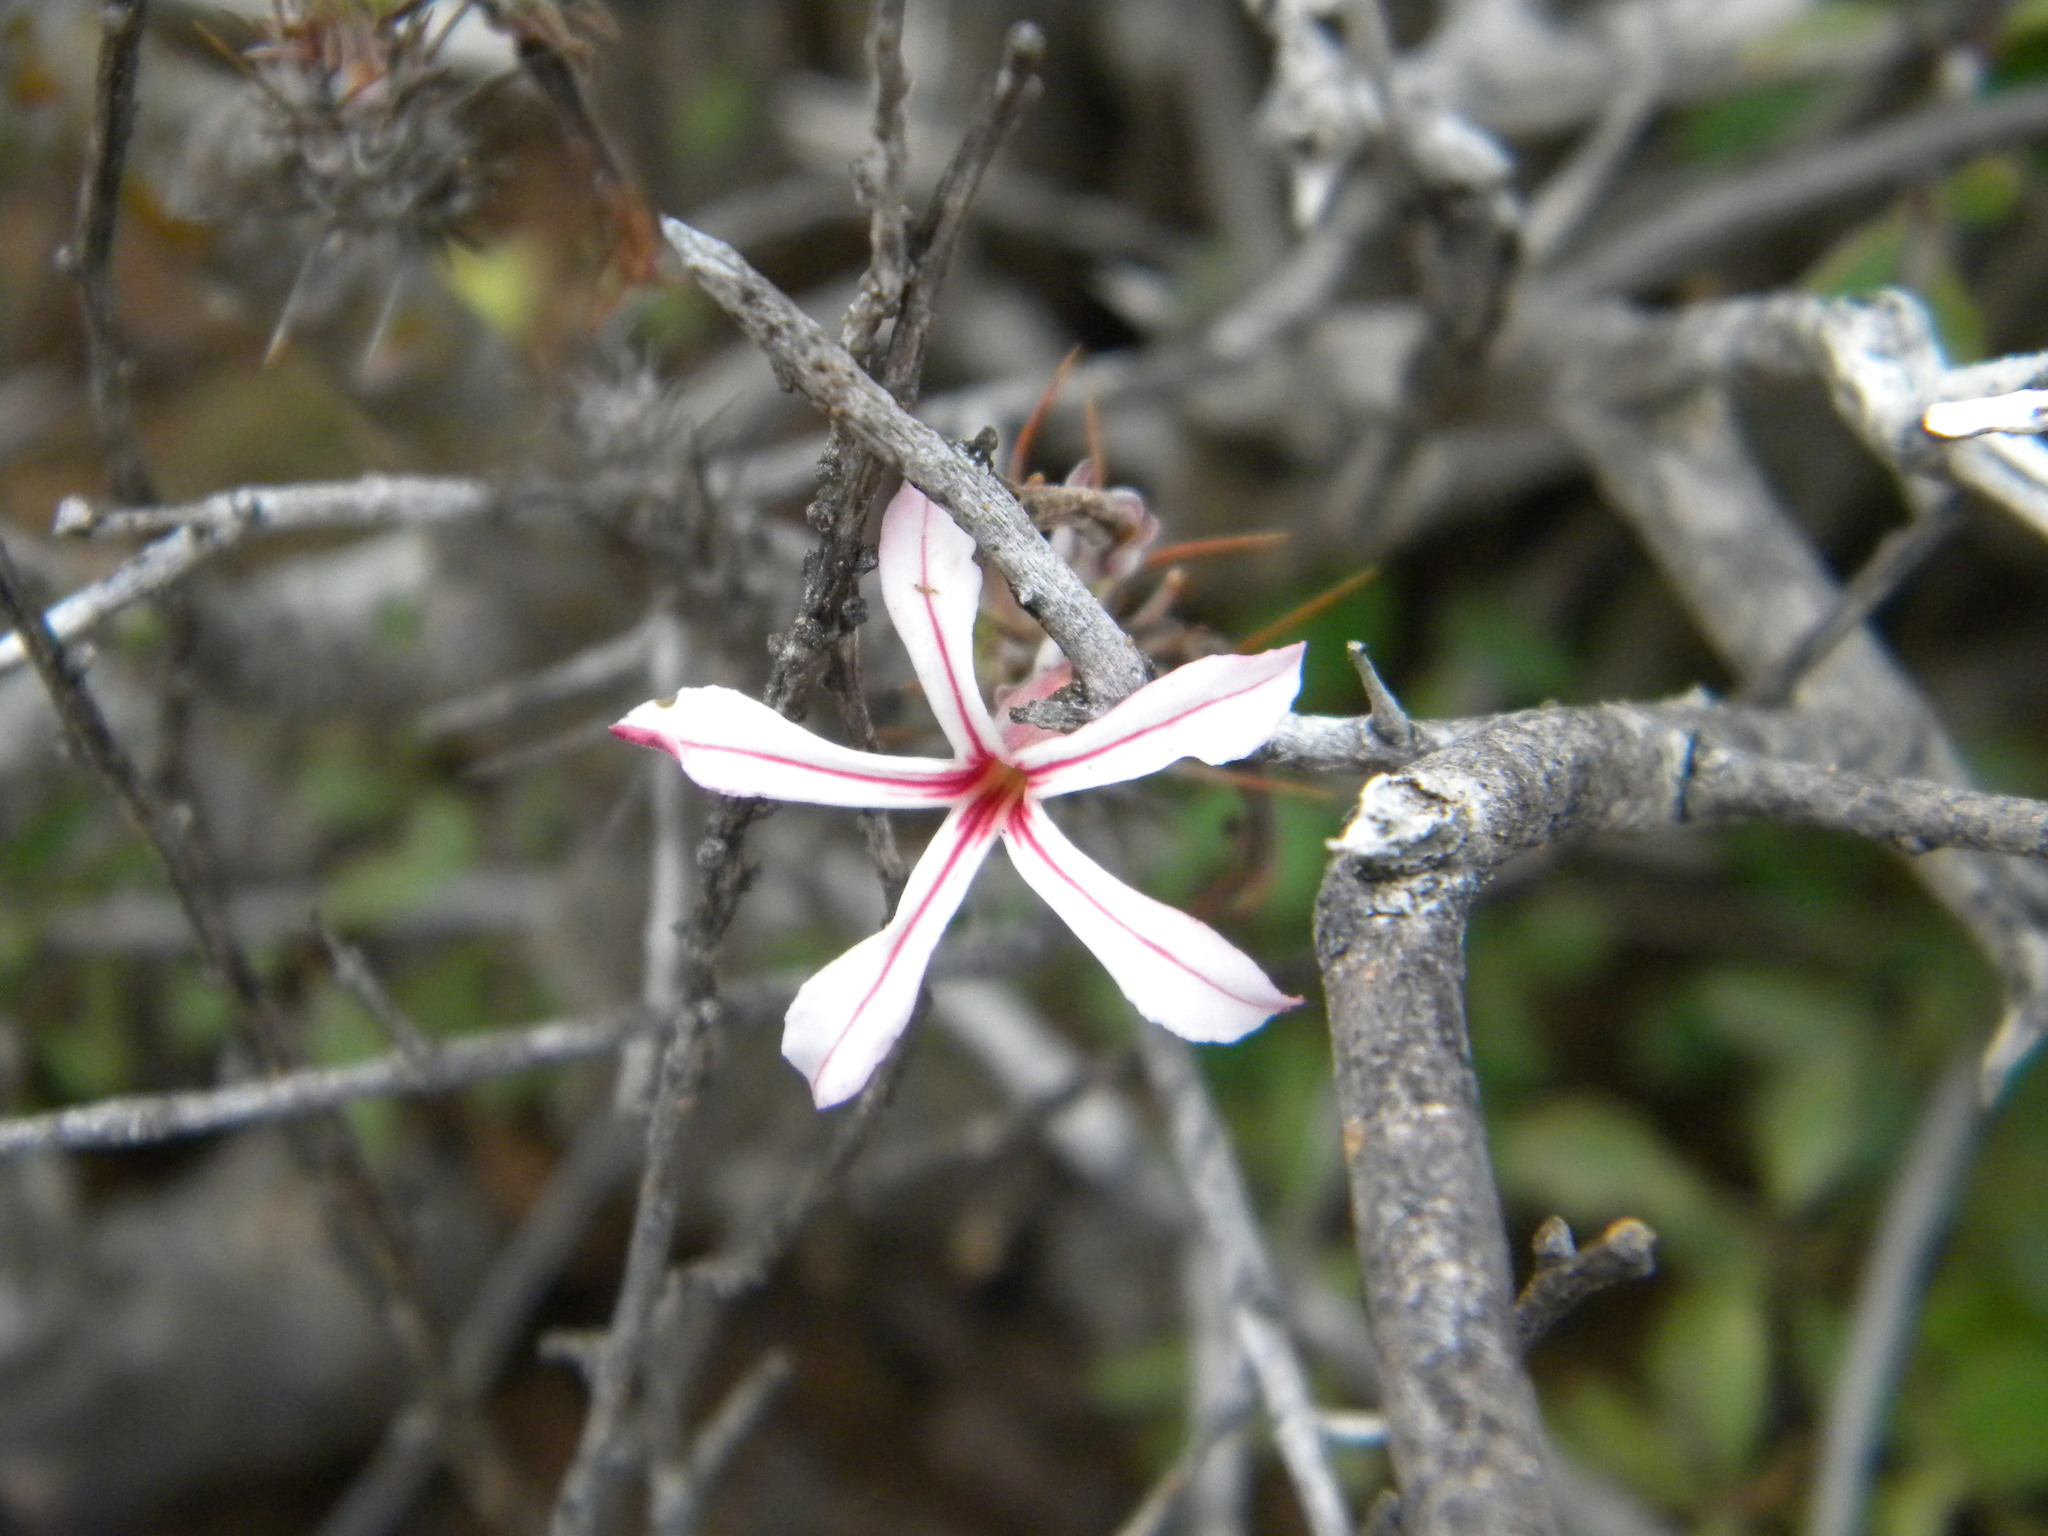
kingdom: Plantae
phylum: Tracheophyta
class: Magnoliopsida
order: Gentianales
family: Apocynaceae
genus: Pachypodium
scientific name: Pachypodium succulentum
